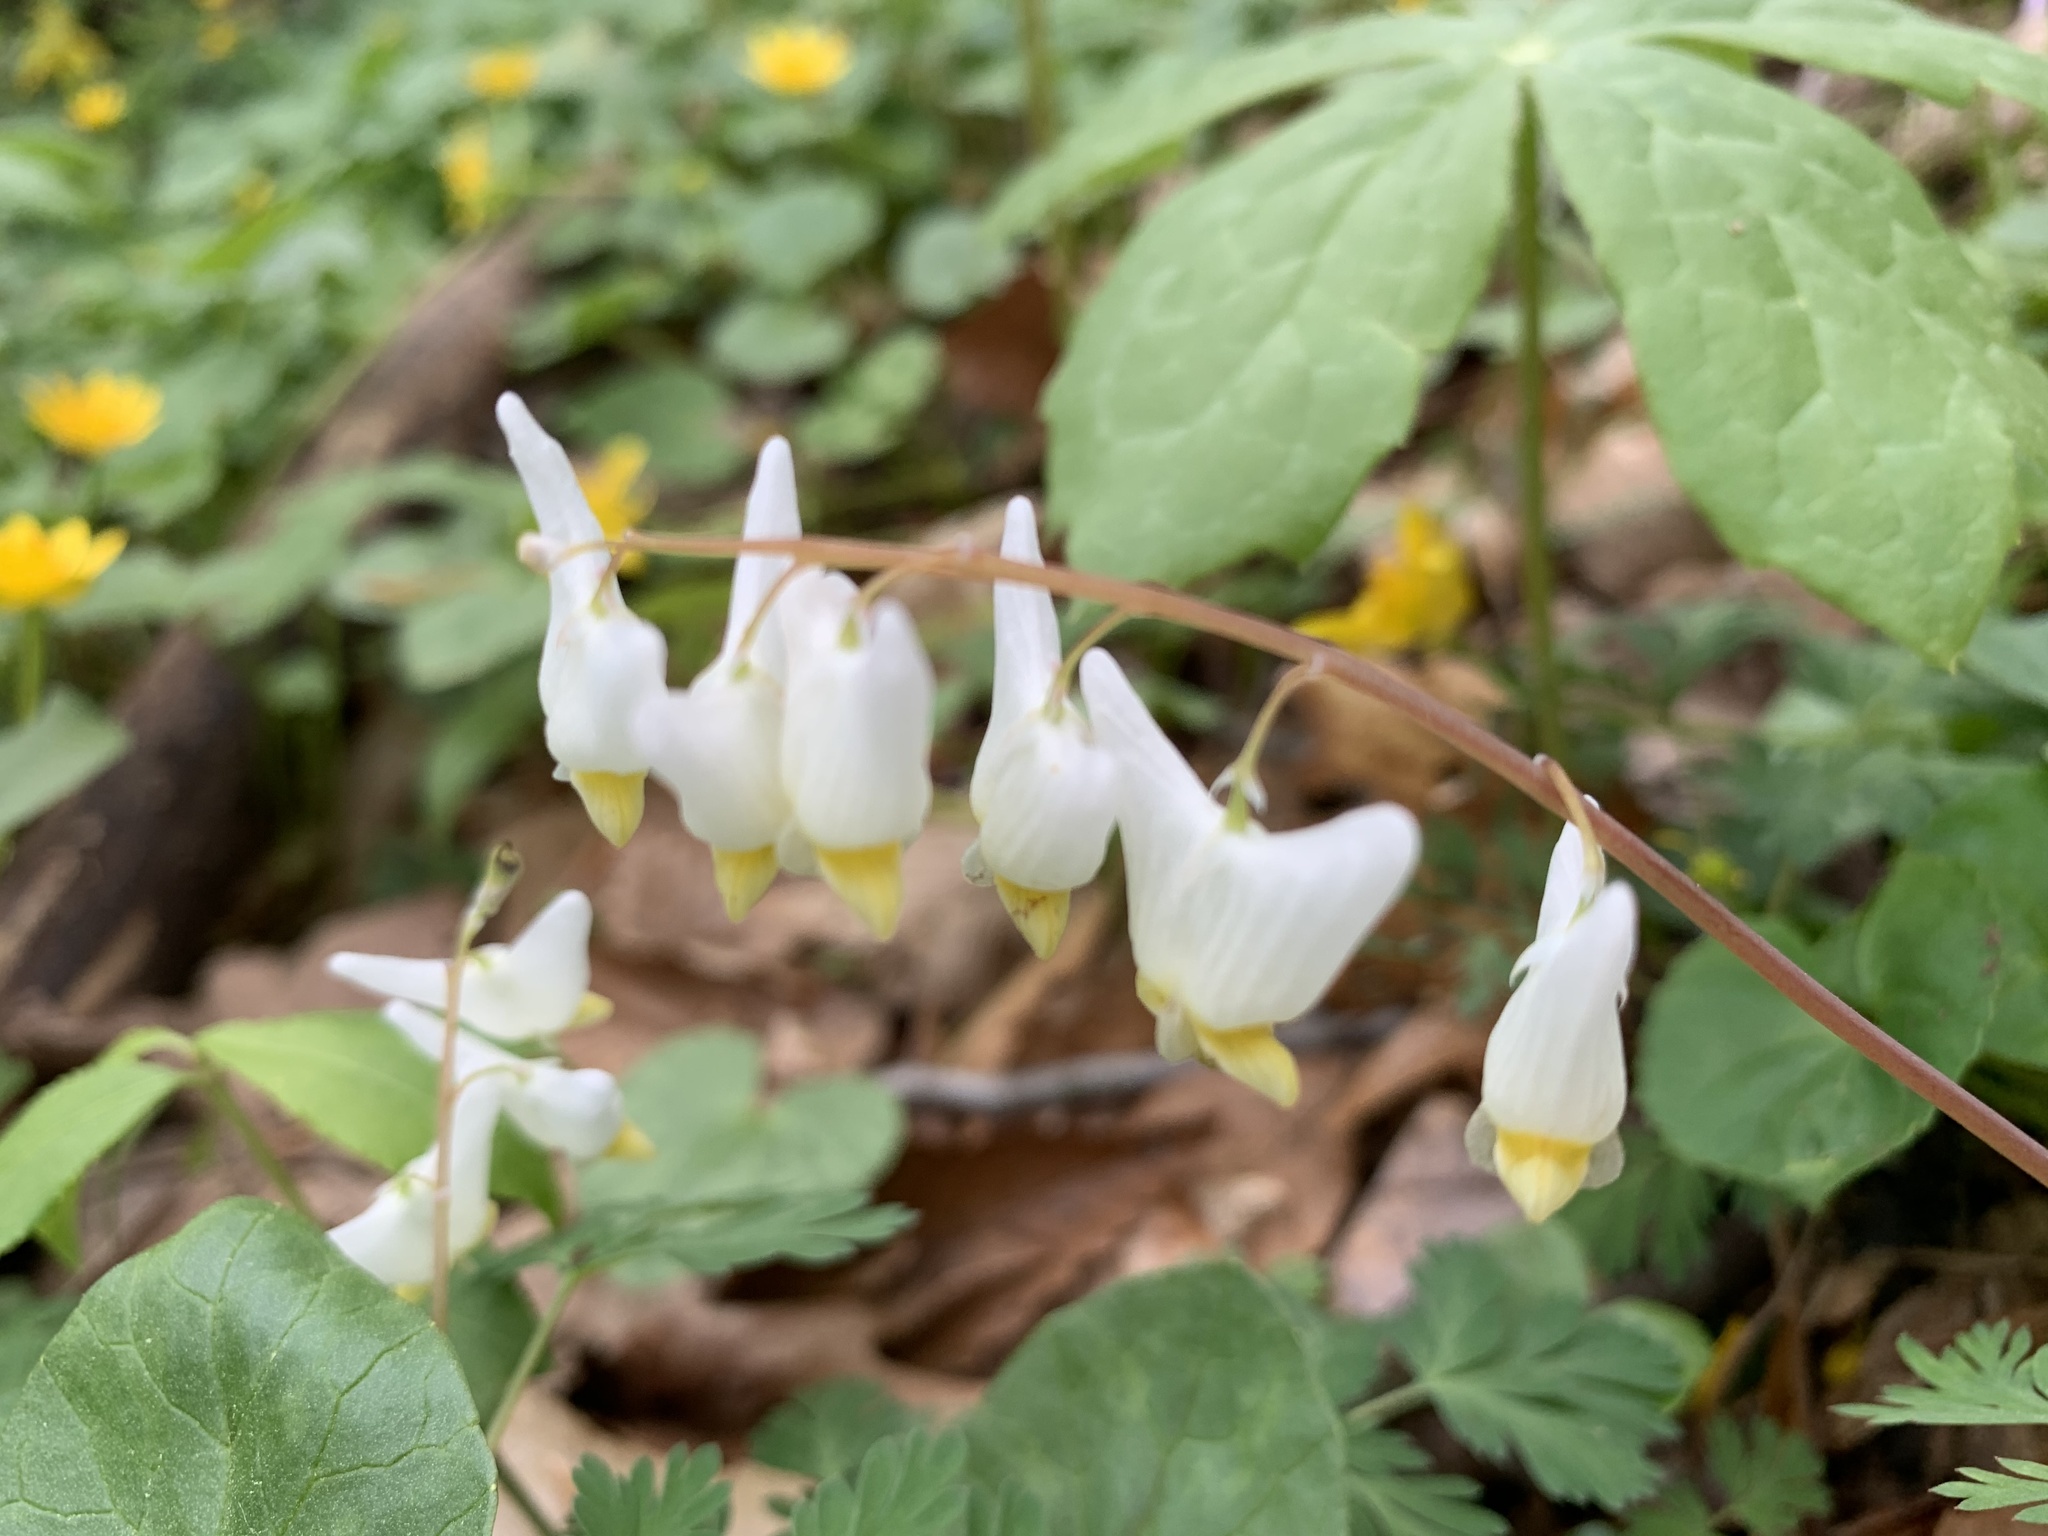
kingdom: Plantae
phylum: Tracheophyta
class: Magnoliopsida
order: Ranunculales
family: Papaveraceae
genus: Dicentra
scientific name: Dicentra cucullaria
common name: Dutchman's breeches
